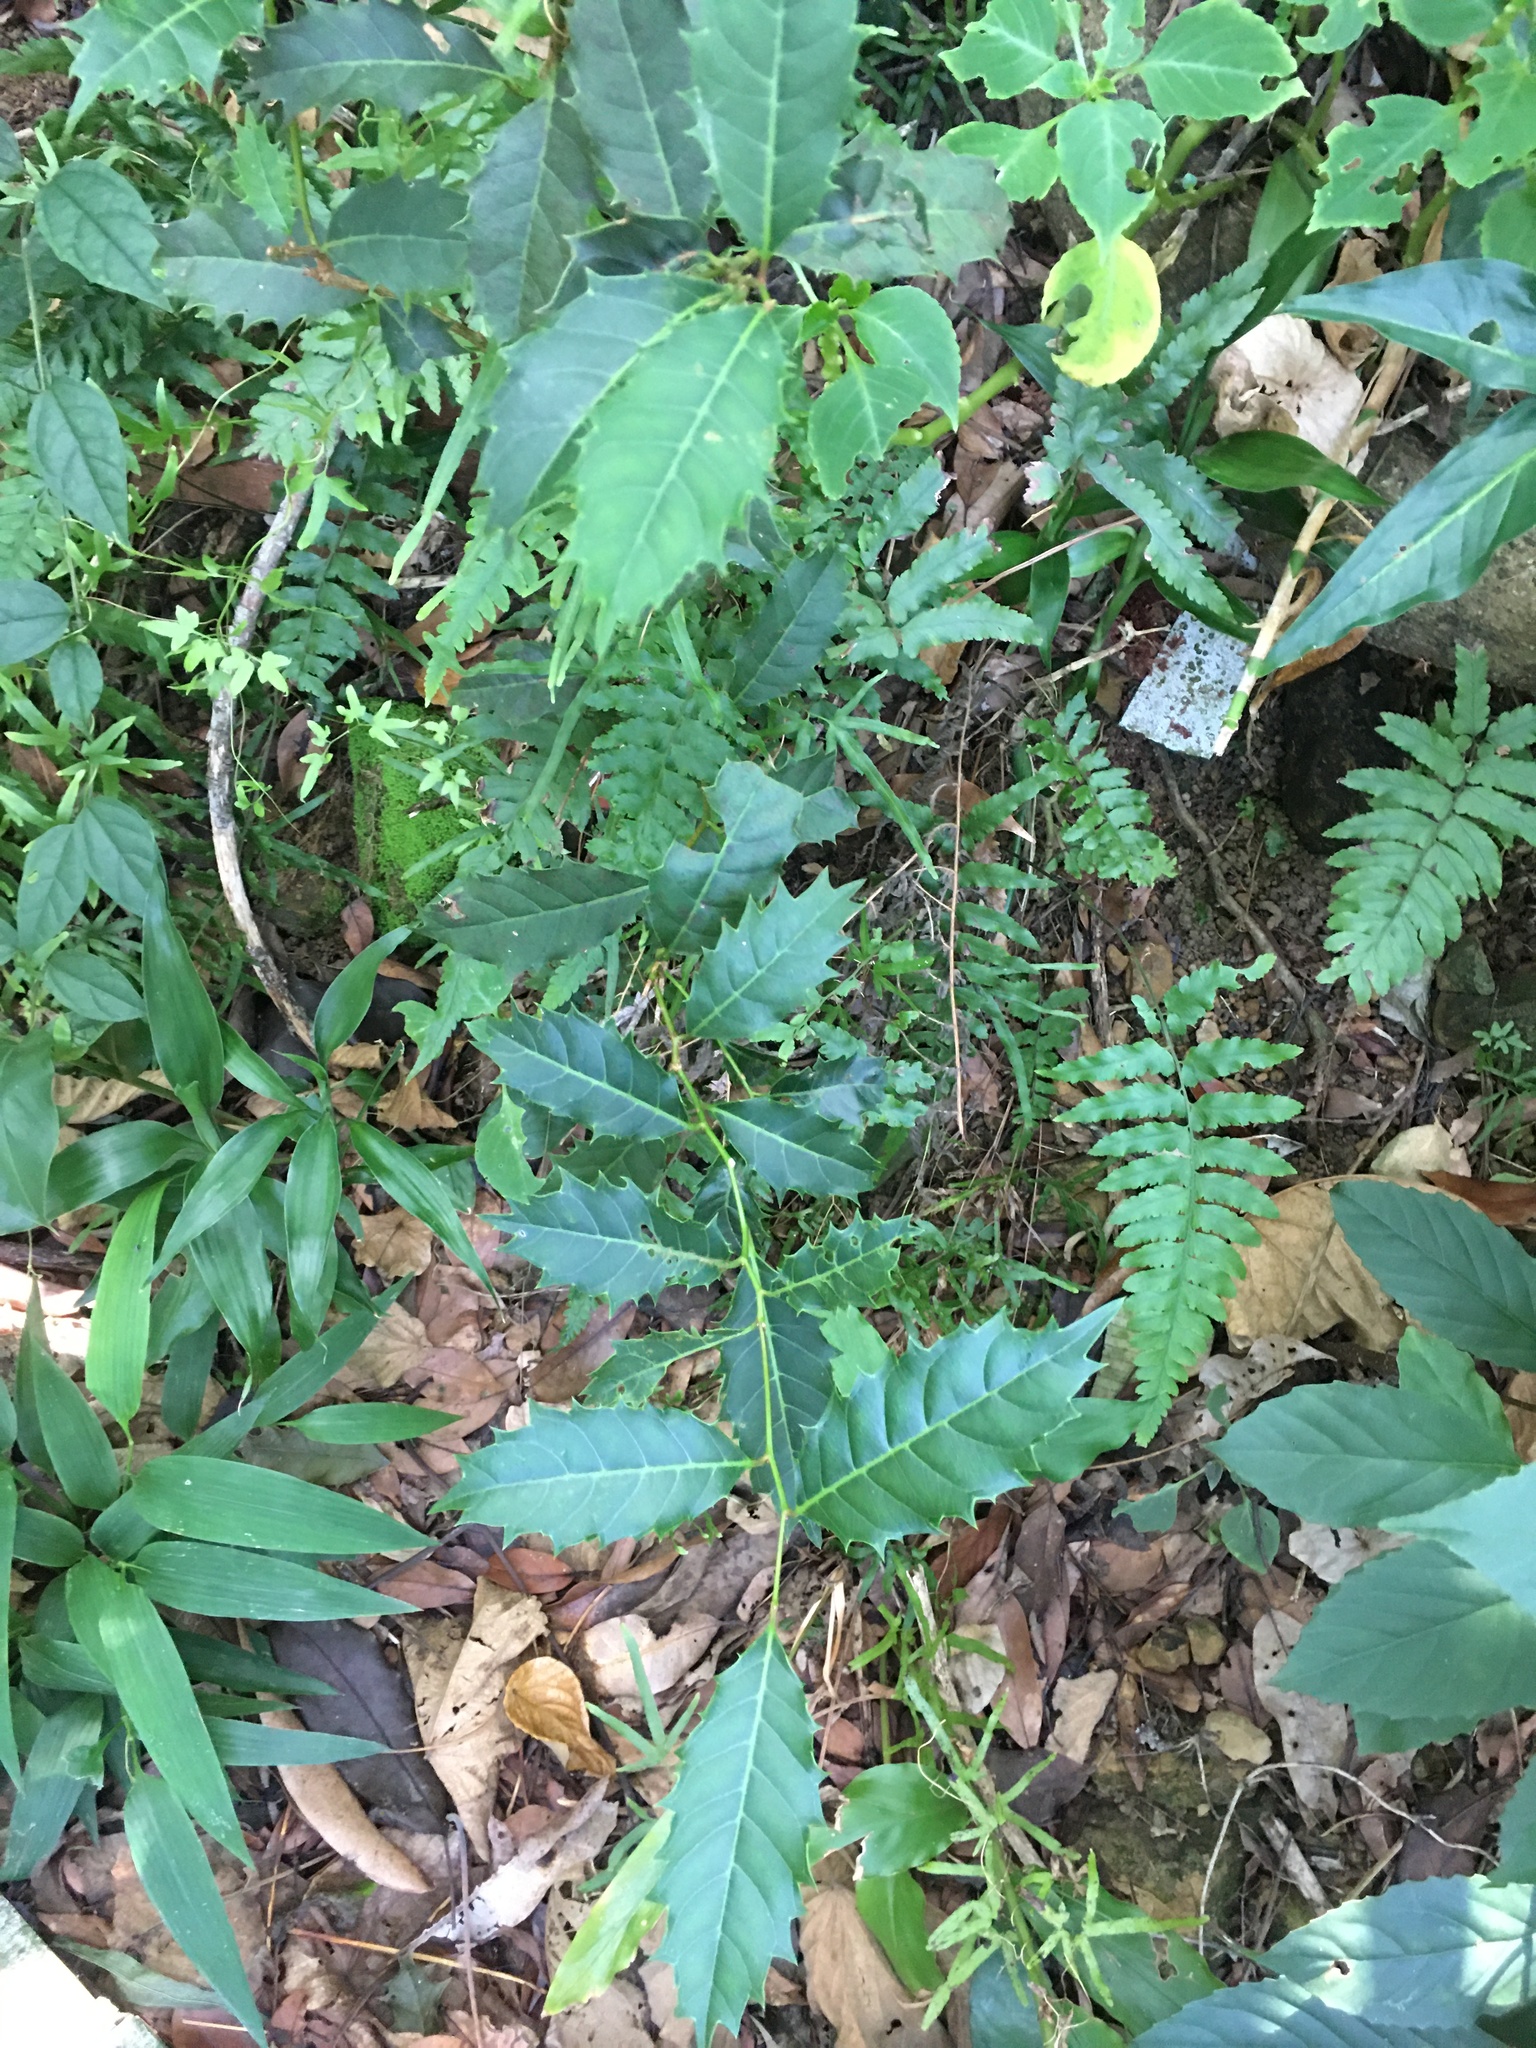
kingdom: Plantae
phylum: Tracheophyta
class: Magnoliopsida
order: Saxifragales
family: Iteaceae
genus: Itea
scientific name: Itea oldhamii
